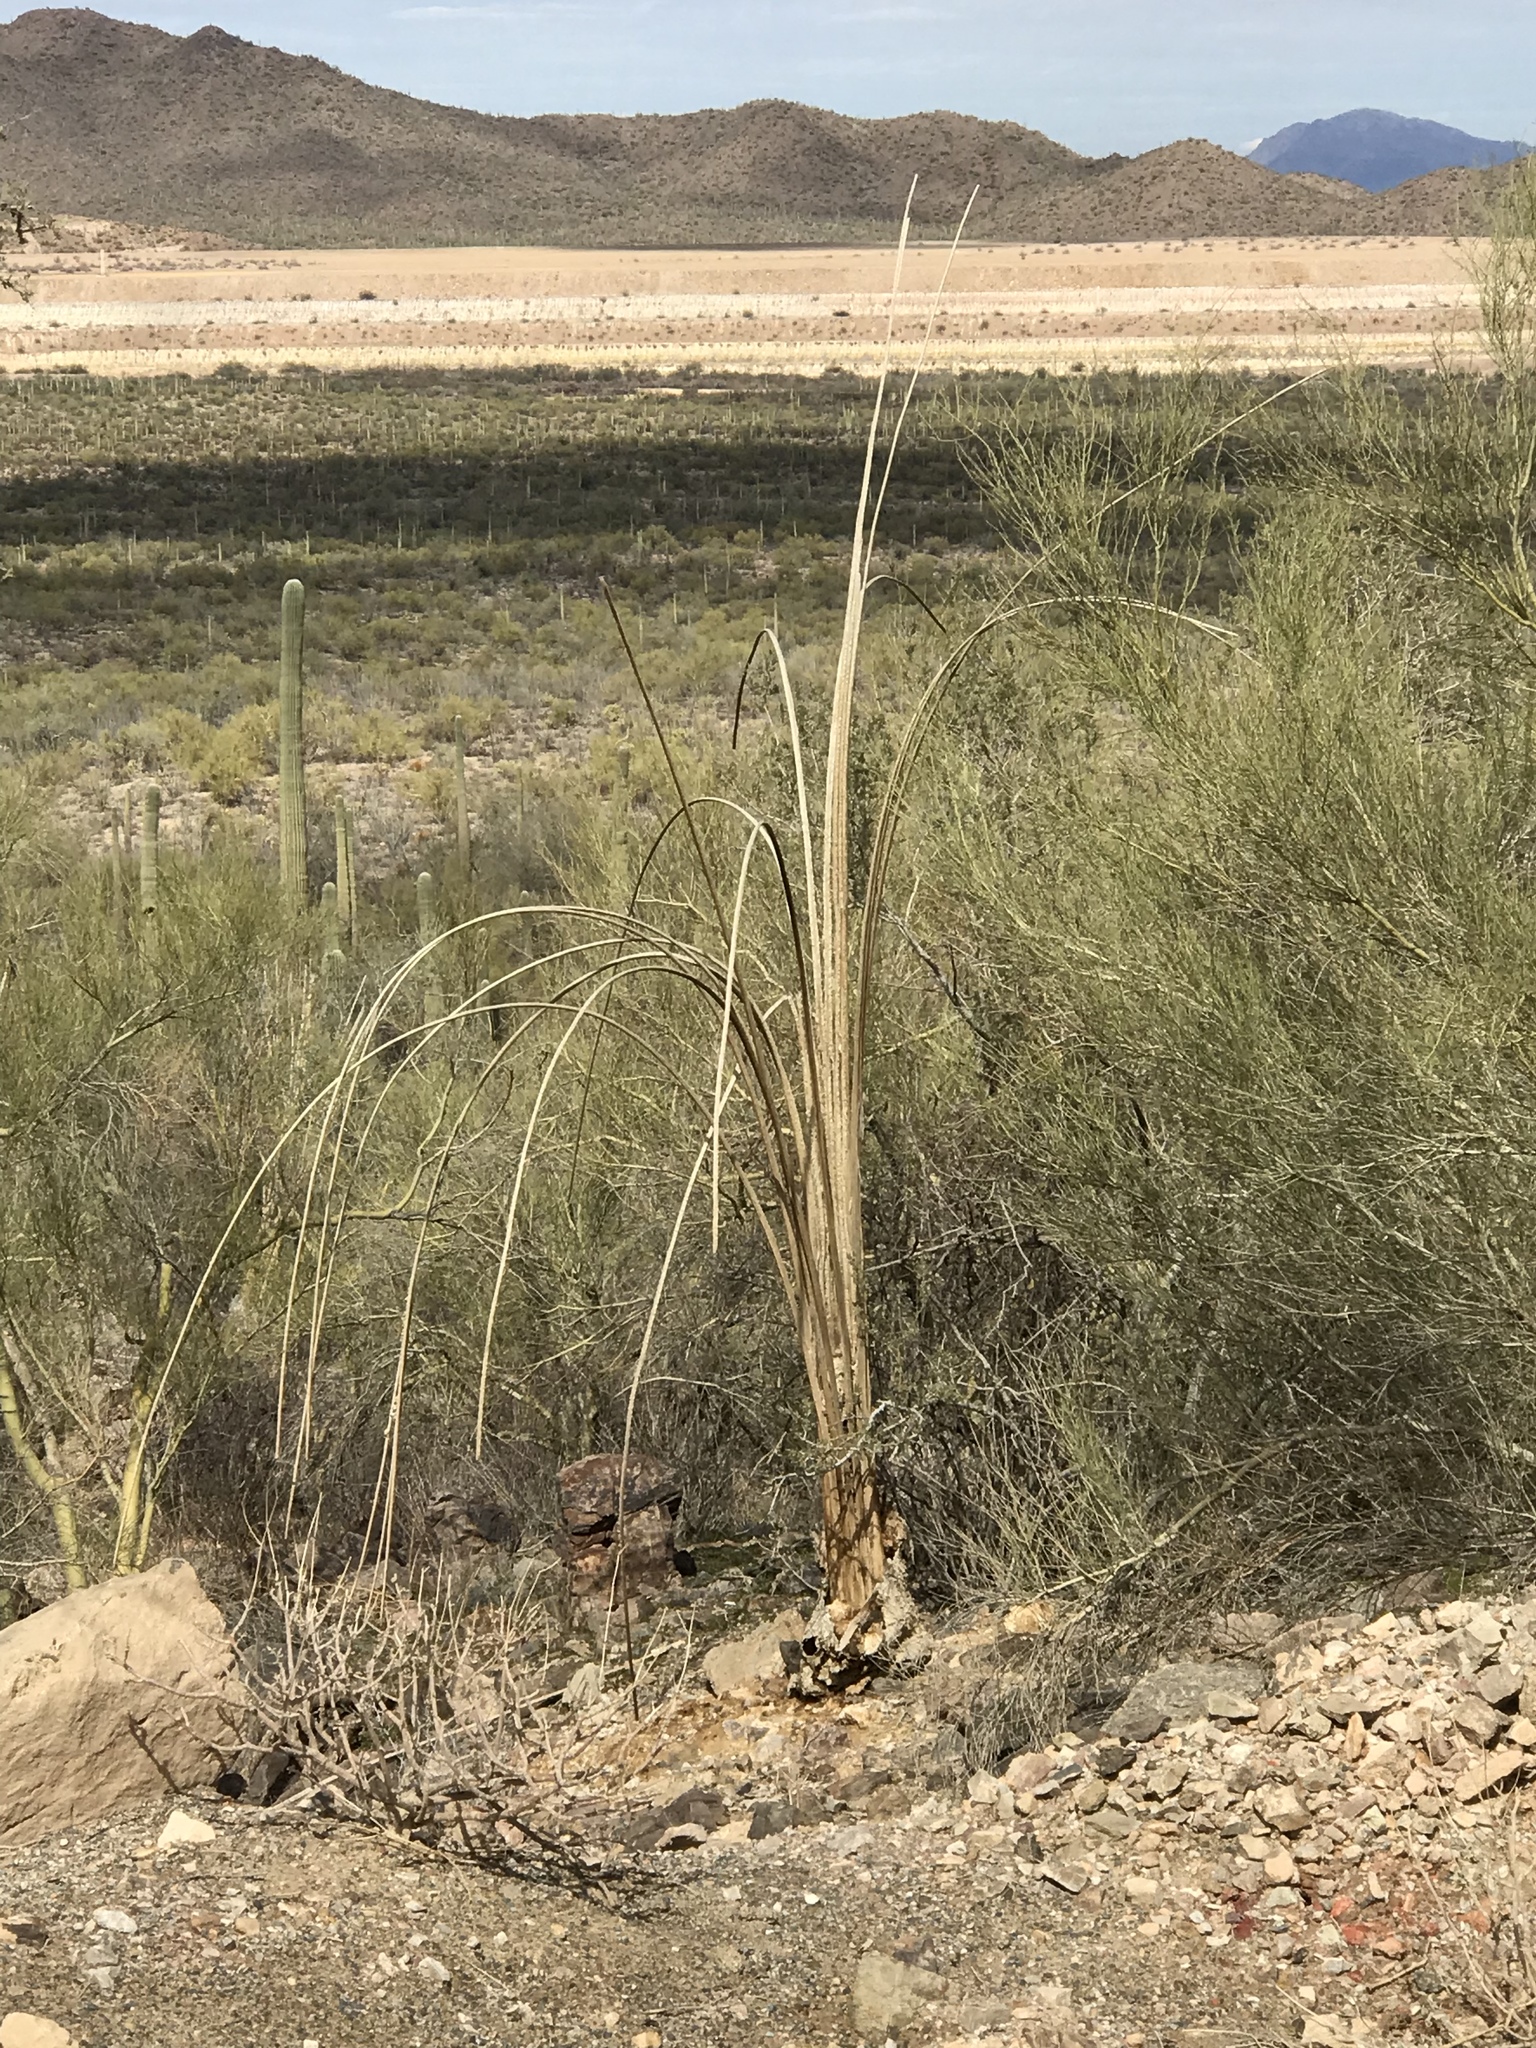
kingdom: Plantae
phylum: Tracheophyta
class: Magnoliopsida
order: Caryophyllales
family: Cactaceae
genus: Carnegiea
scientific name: Carnegiea gigantea
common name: Saguaro
